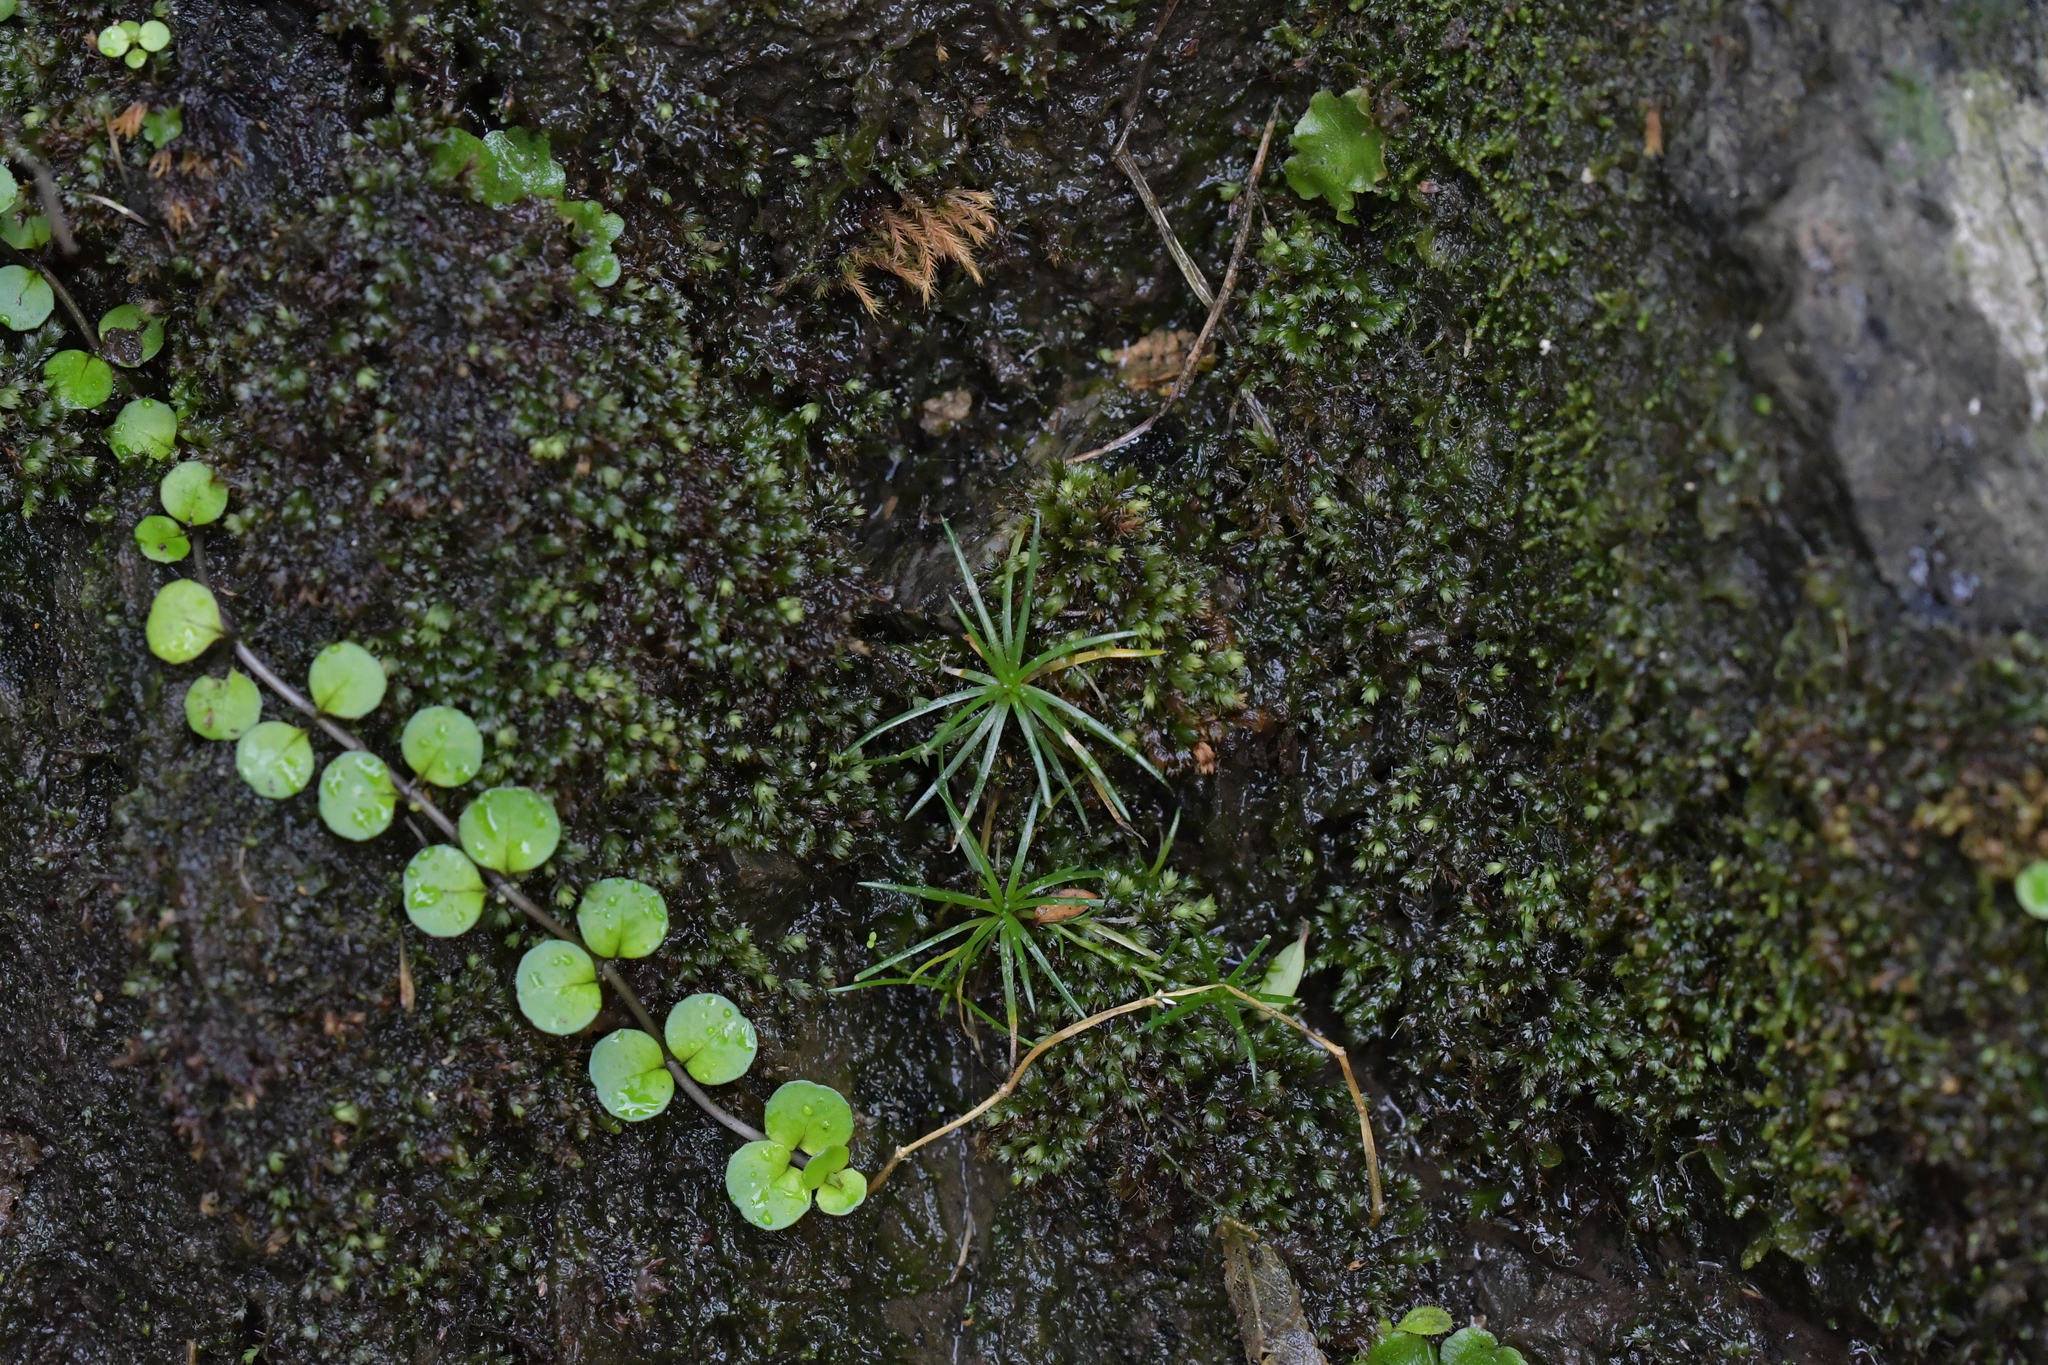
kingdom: Plantae
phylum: Tracheophyta
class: Magnoliopsida
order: Myrtales
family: Onagraceae
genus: Epilobium
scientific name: Epilobium nummularifolium
